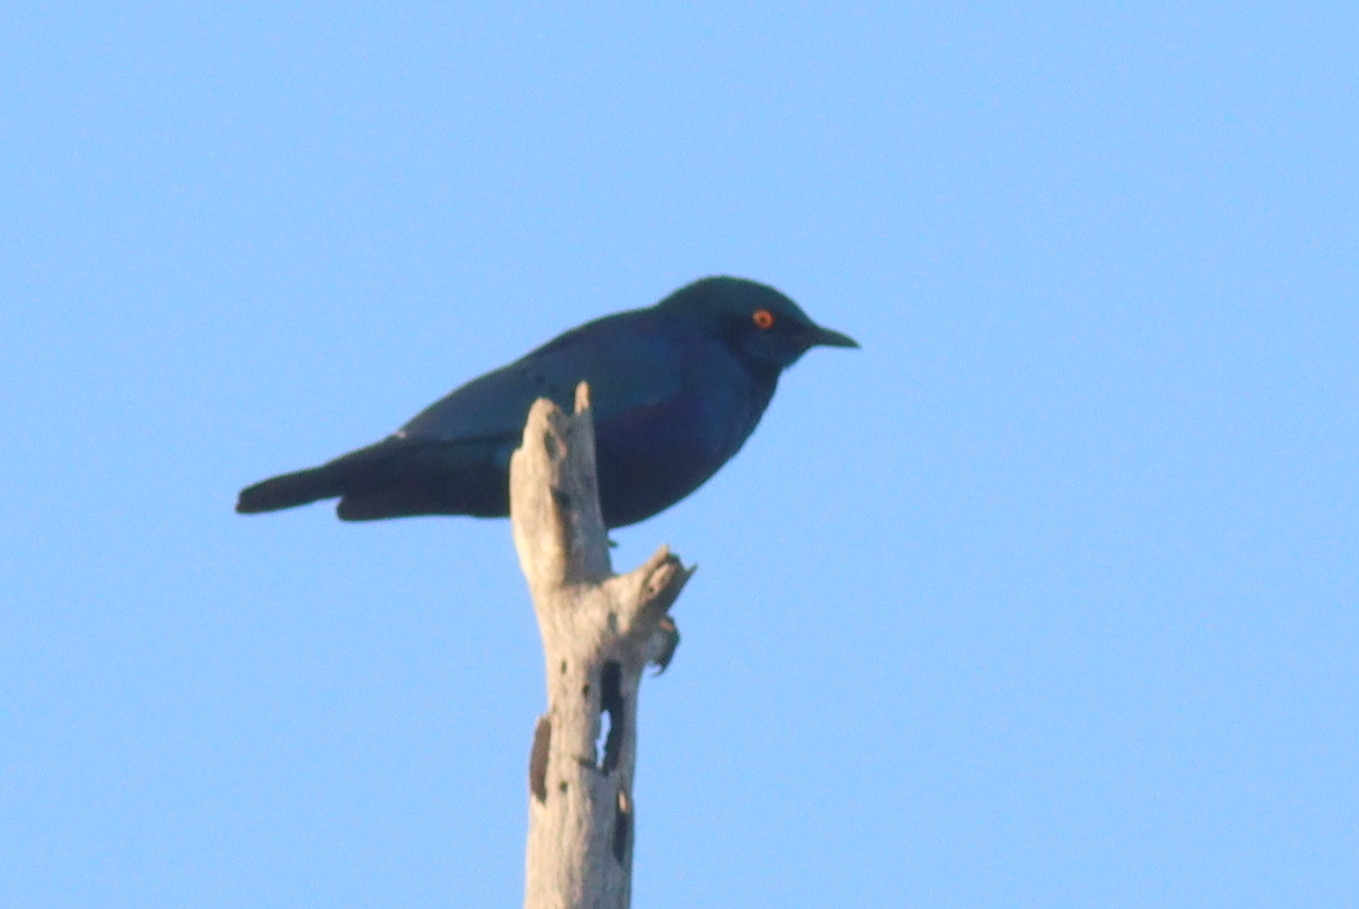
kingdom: Animalia
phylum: Chordata
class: Aves
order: Passeriformes
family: Sturnidae
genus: Lamprotornis
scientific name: Lamprotornis chalybaeus
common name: Greater blue-eared starling
